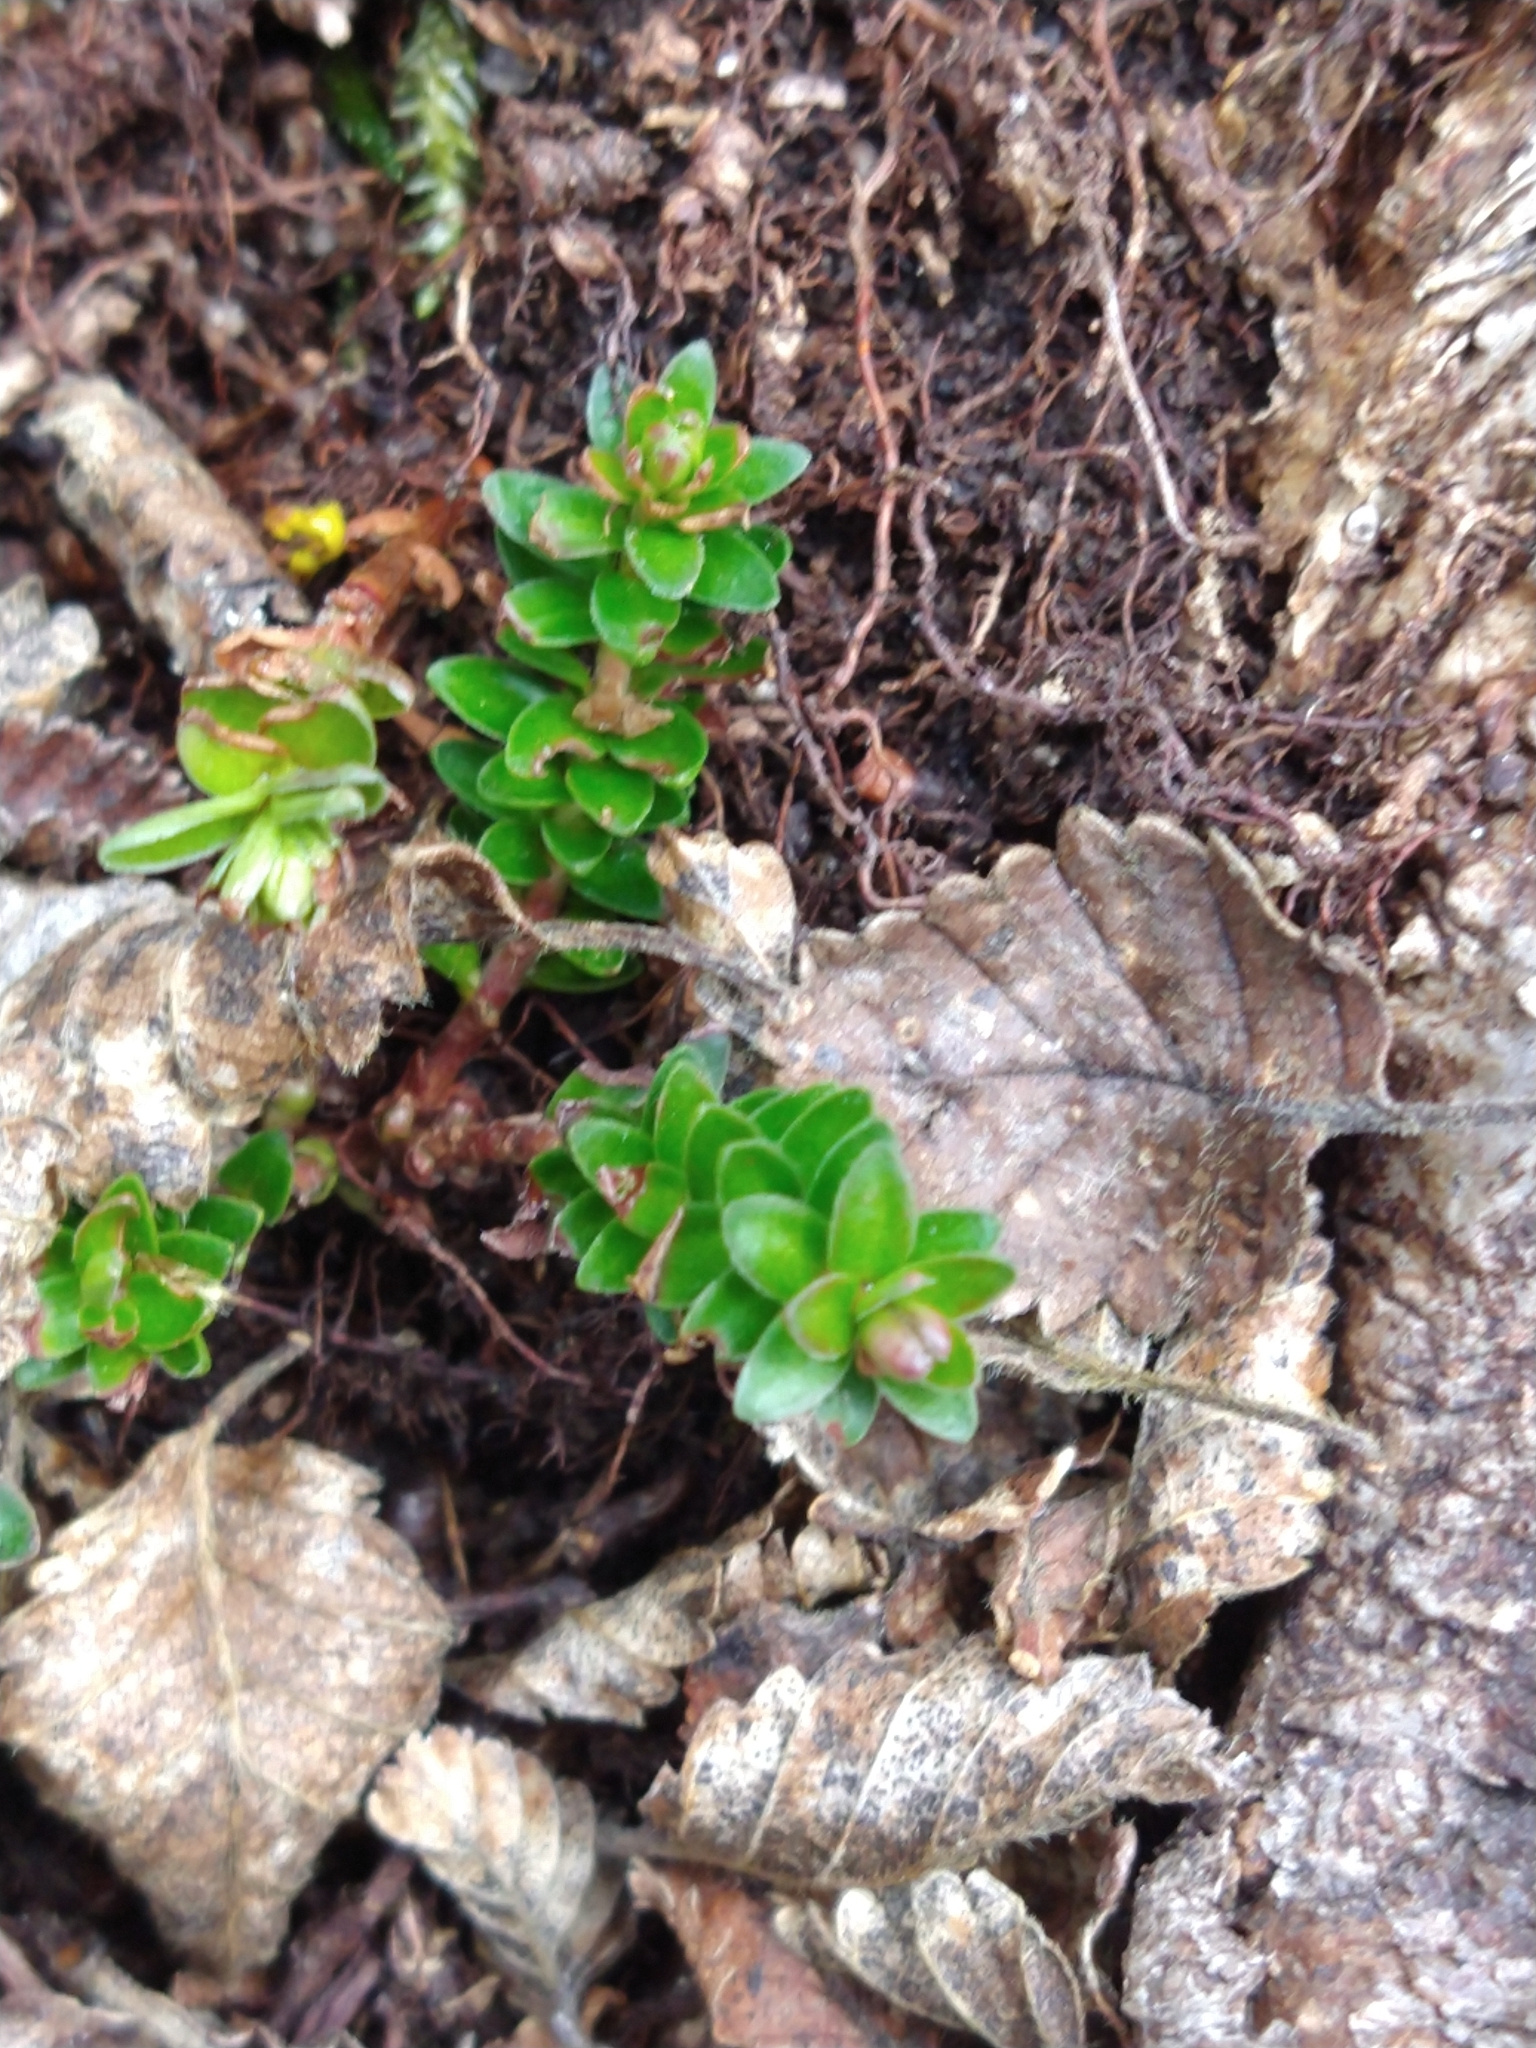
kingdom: Plantae
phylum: Tracheophyta
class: Magnoliopsida
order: Ericales
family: Ericaceae
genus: Gaultheria
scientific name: Gaultheria pumila
